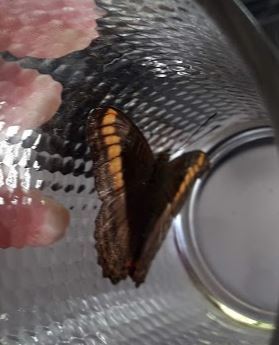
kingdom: Animalia
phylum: Arthropoda
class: Insecta
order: Lepidoptera
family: Nymphalidae
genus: Limenitis
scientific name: Limenitis Adelpha tracta
